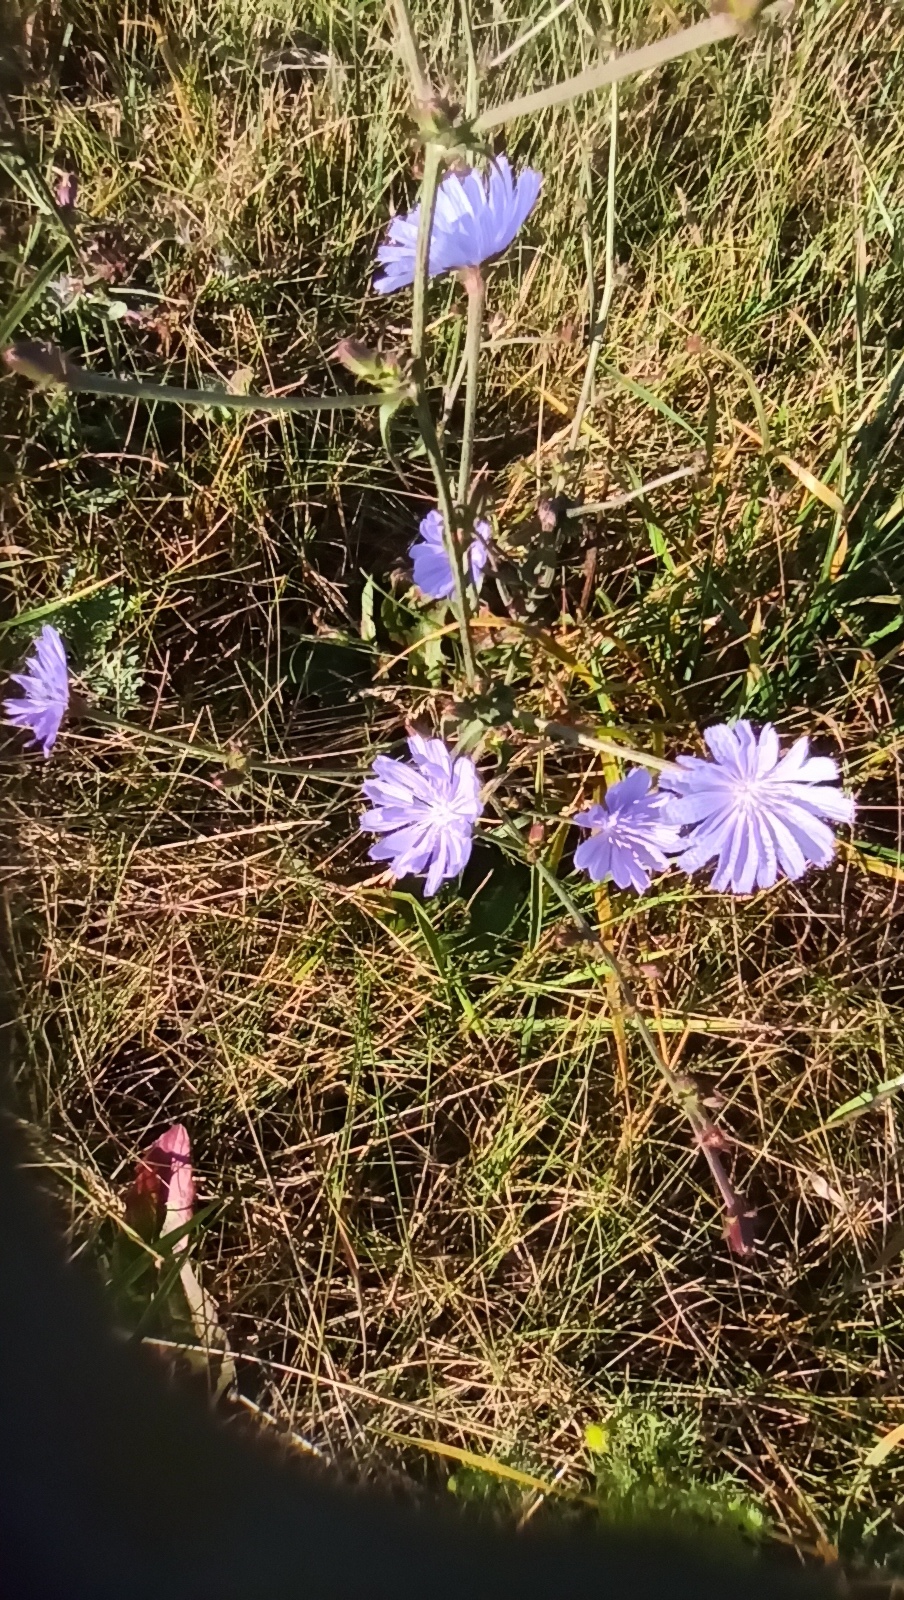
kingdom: Plantae
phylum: Tracheophyta
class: Magnoliopsida
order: Asterales
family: Asteraceae
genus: Cichorium
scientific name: Cichorium intybus
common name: Chicory
